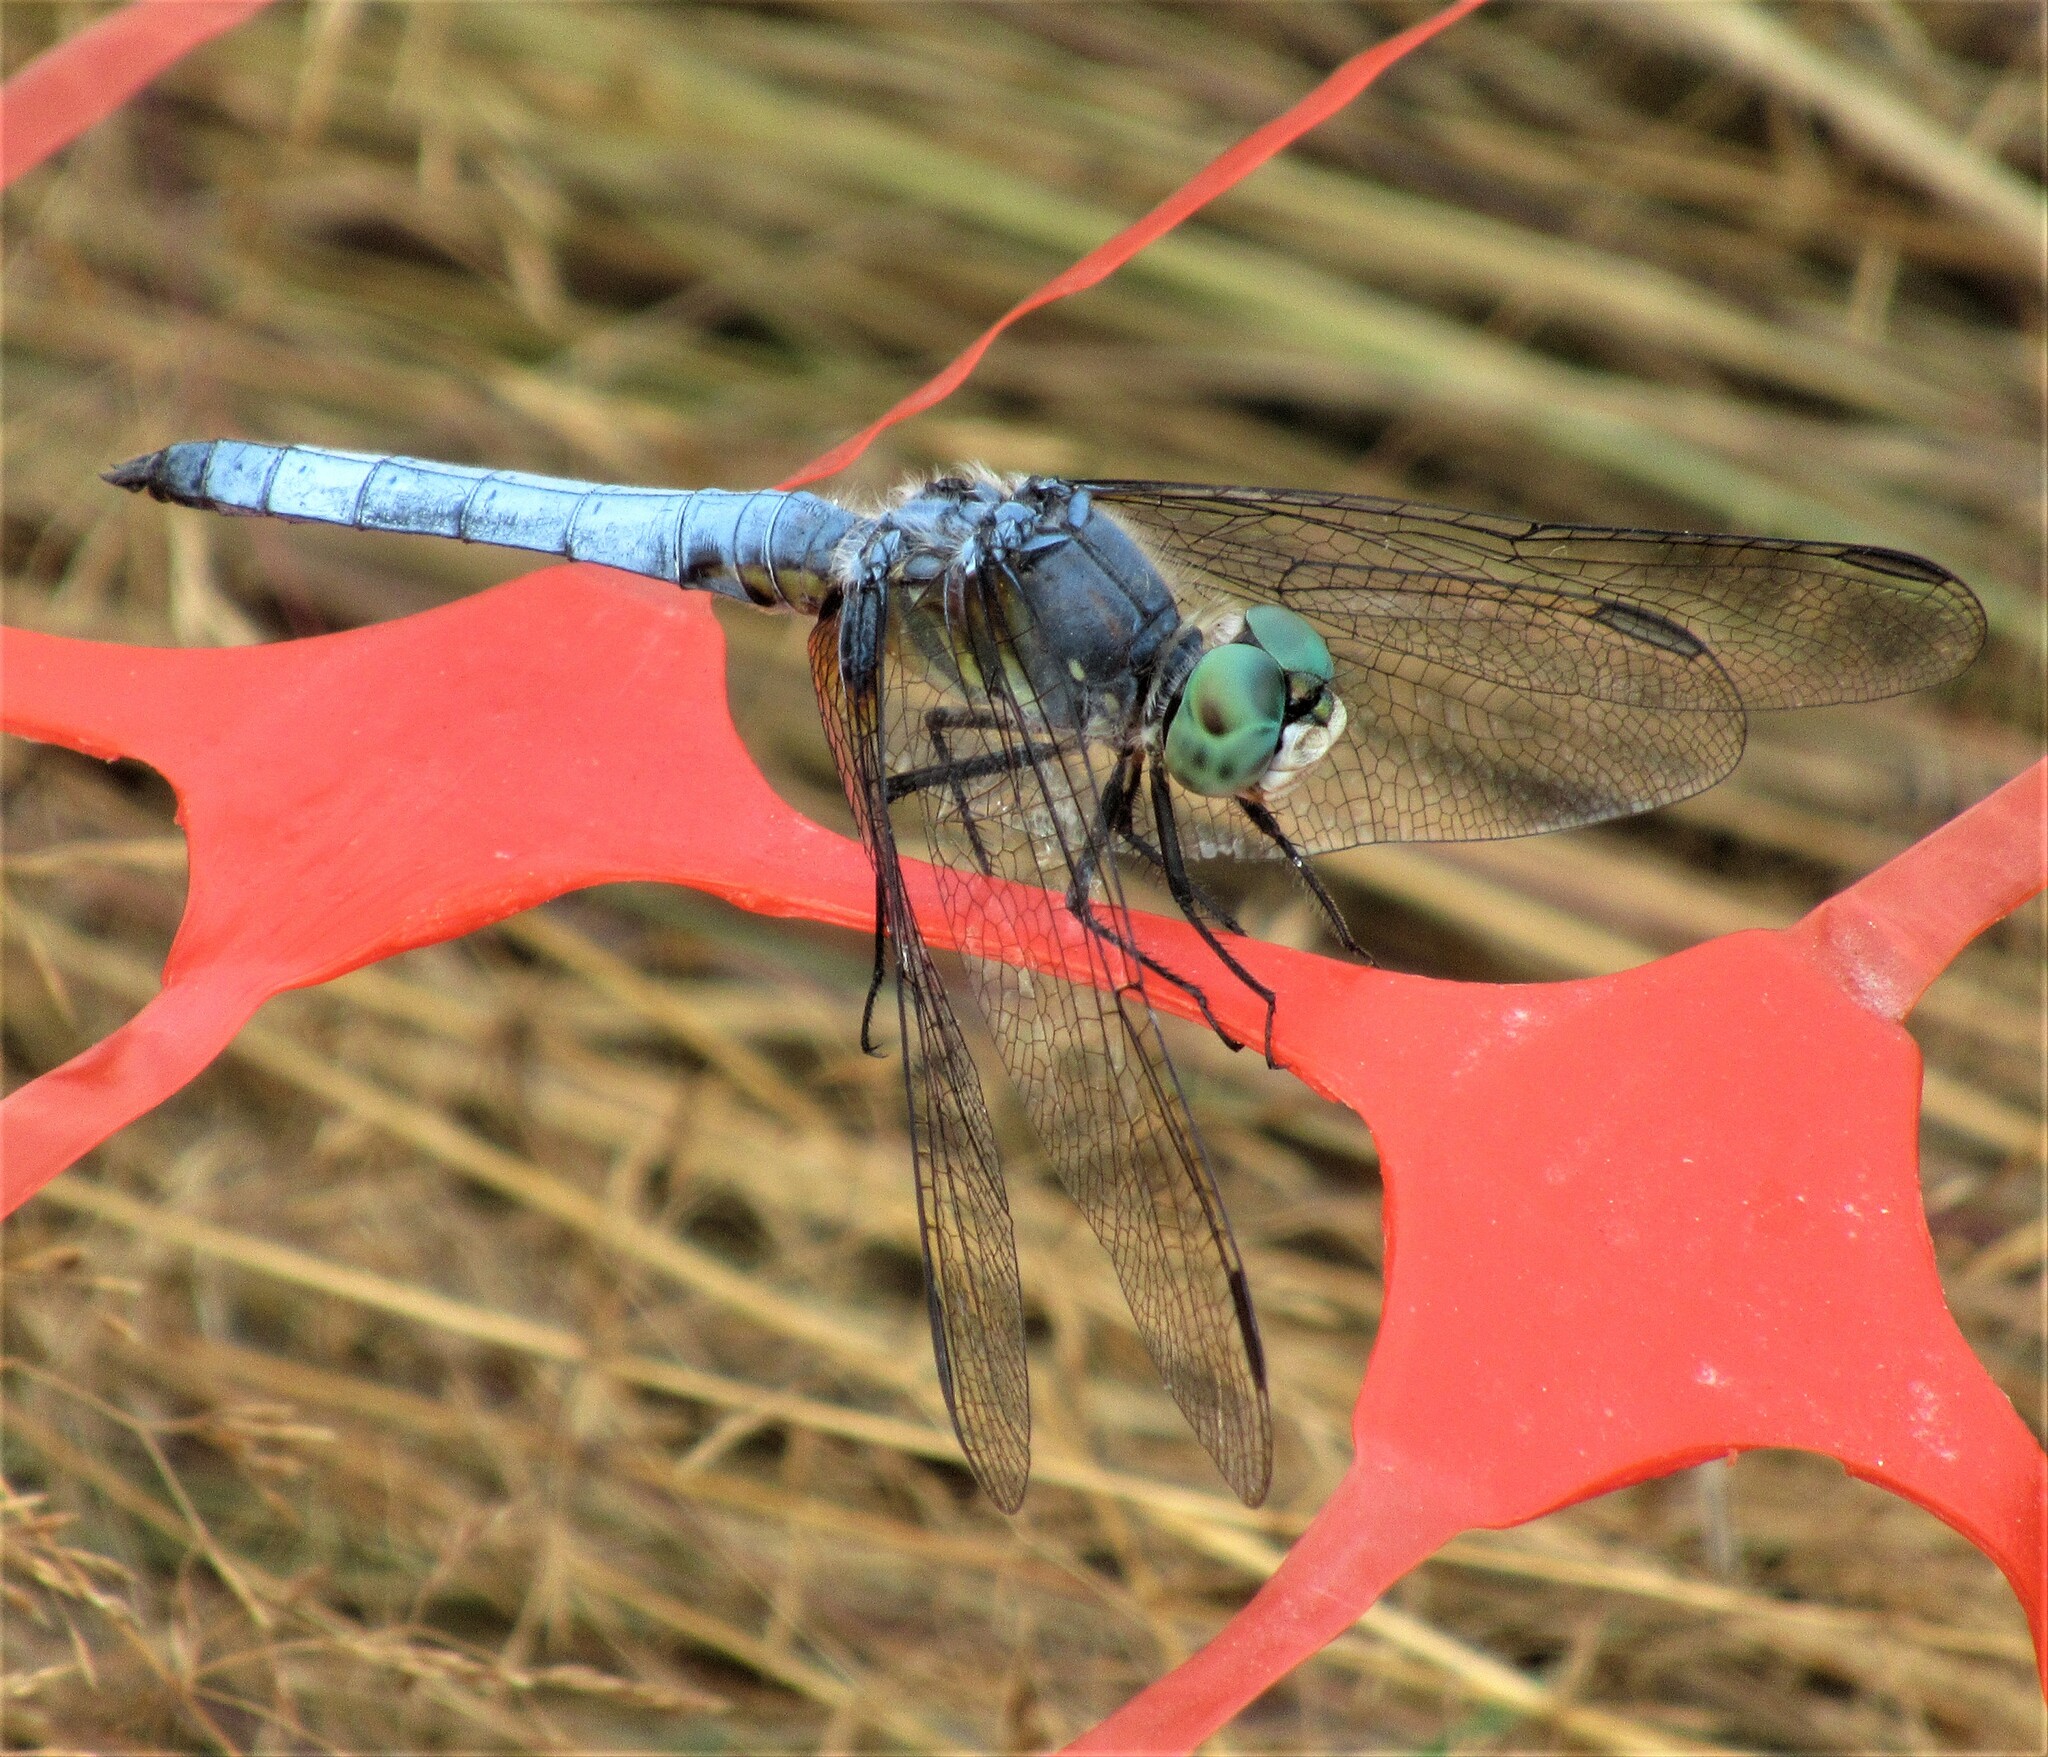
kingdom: Animalia
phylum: Arthropoda
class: Insecta
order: Odonata
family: Libellulidae
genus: Pachydiplax
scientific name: Pachydiplax longipennis
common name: Blue dasher
